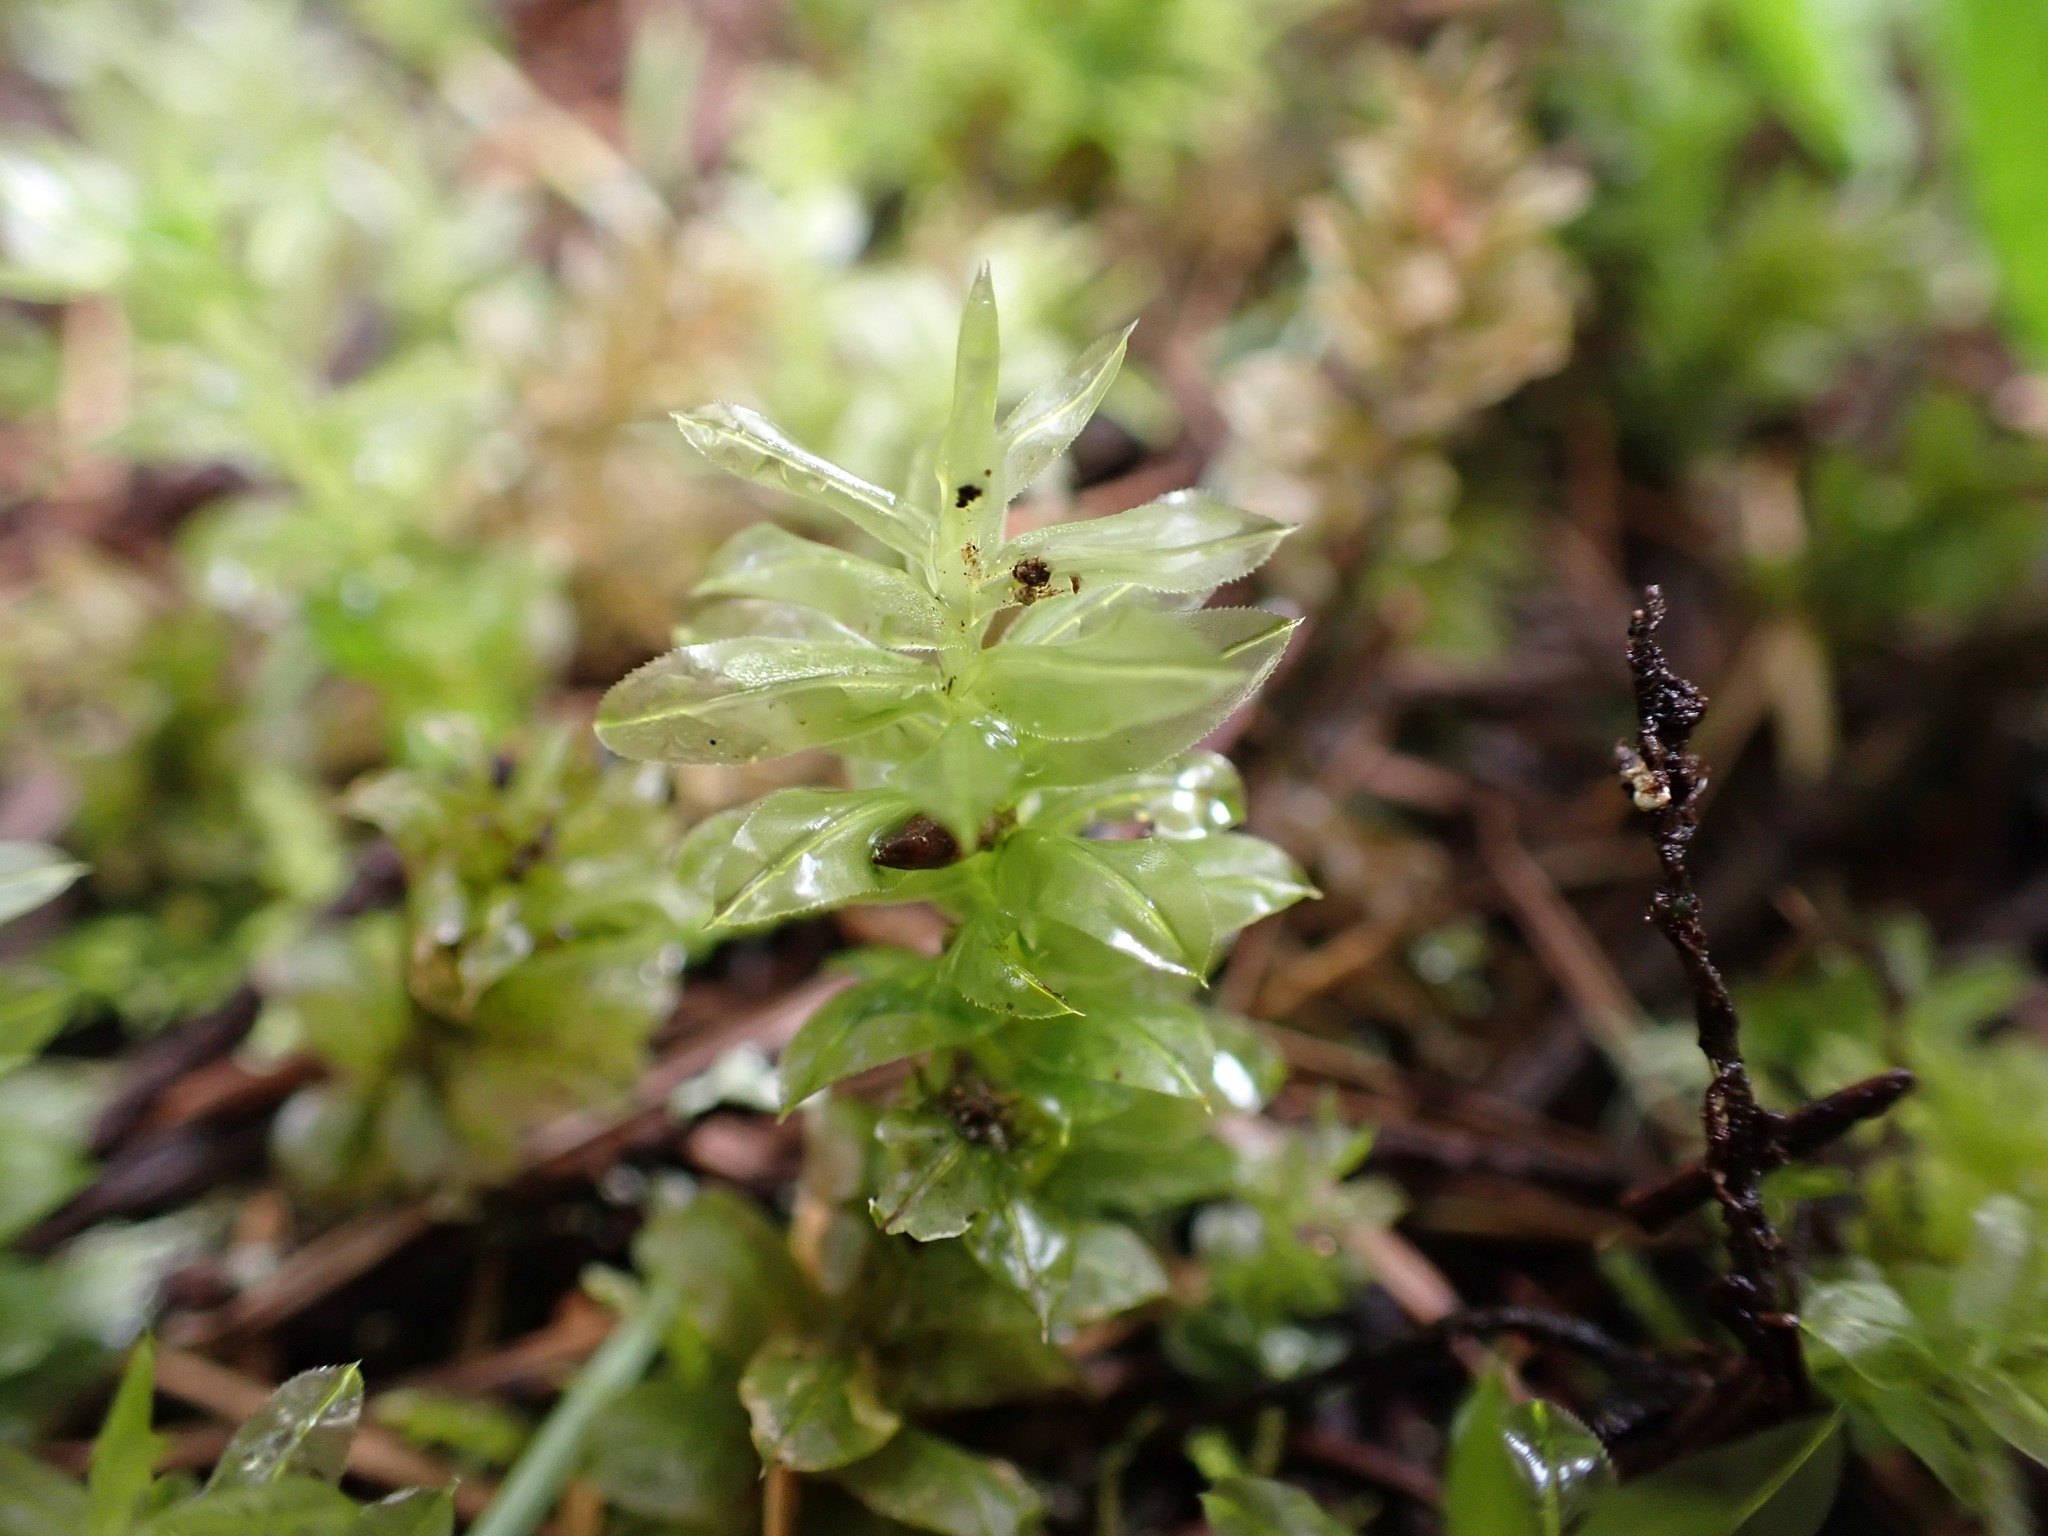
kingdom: Plantae
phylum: Bryophyta
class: Bryopsida
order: Bryales
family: Mniaceae
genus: Plagiomnium
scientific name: Plagiomnium insigne
